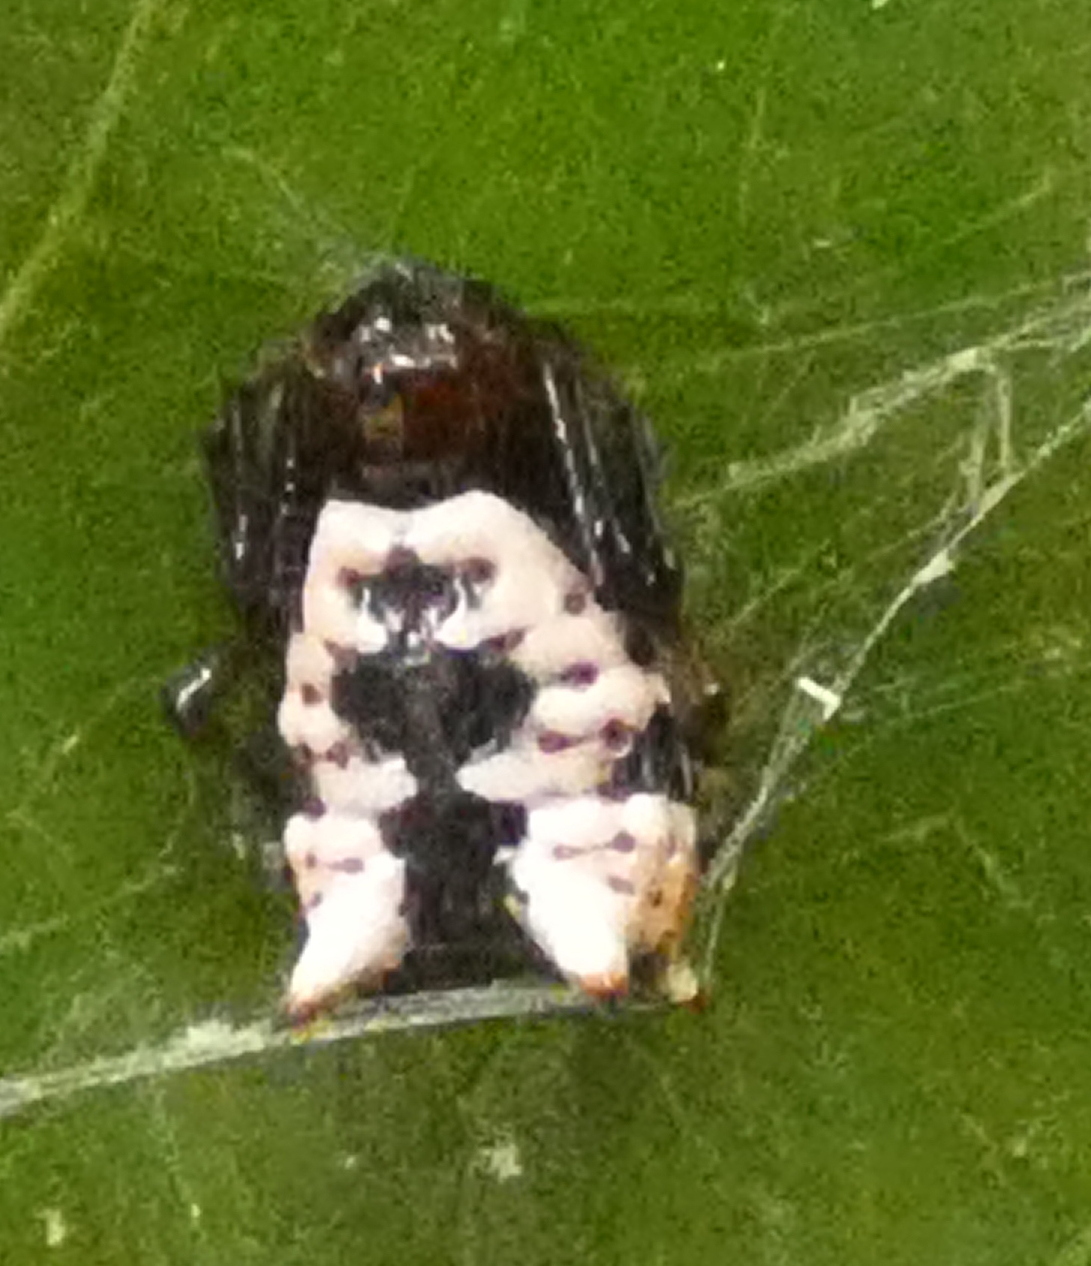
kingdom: Animalia
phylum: Arthropoda
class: Arachnida
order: Araneae
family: Araneidae
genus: Micrathena
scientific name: Micrathena patruelis
